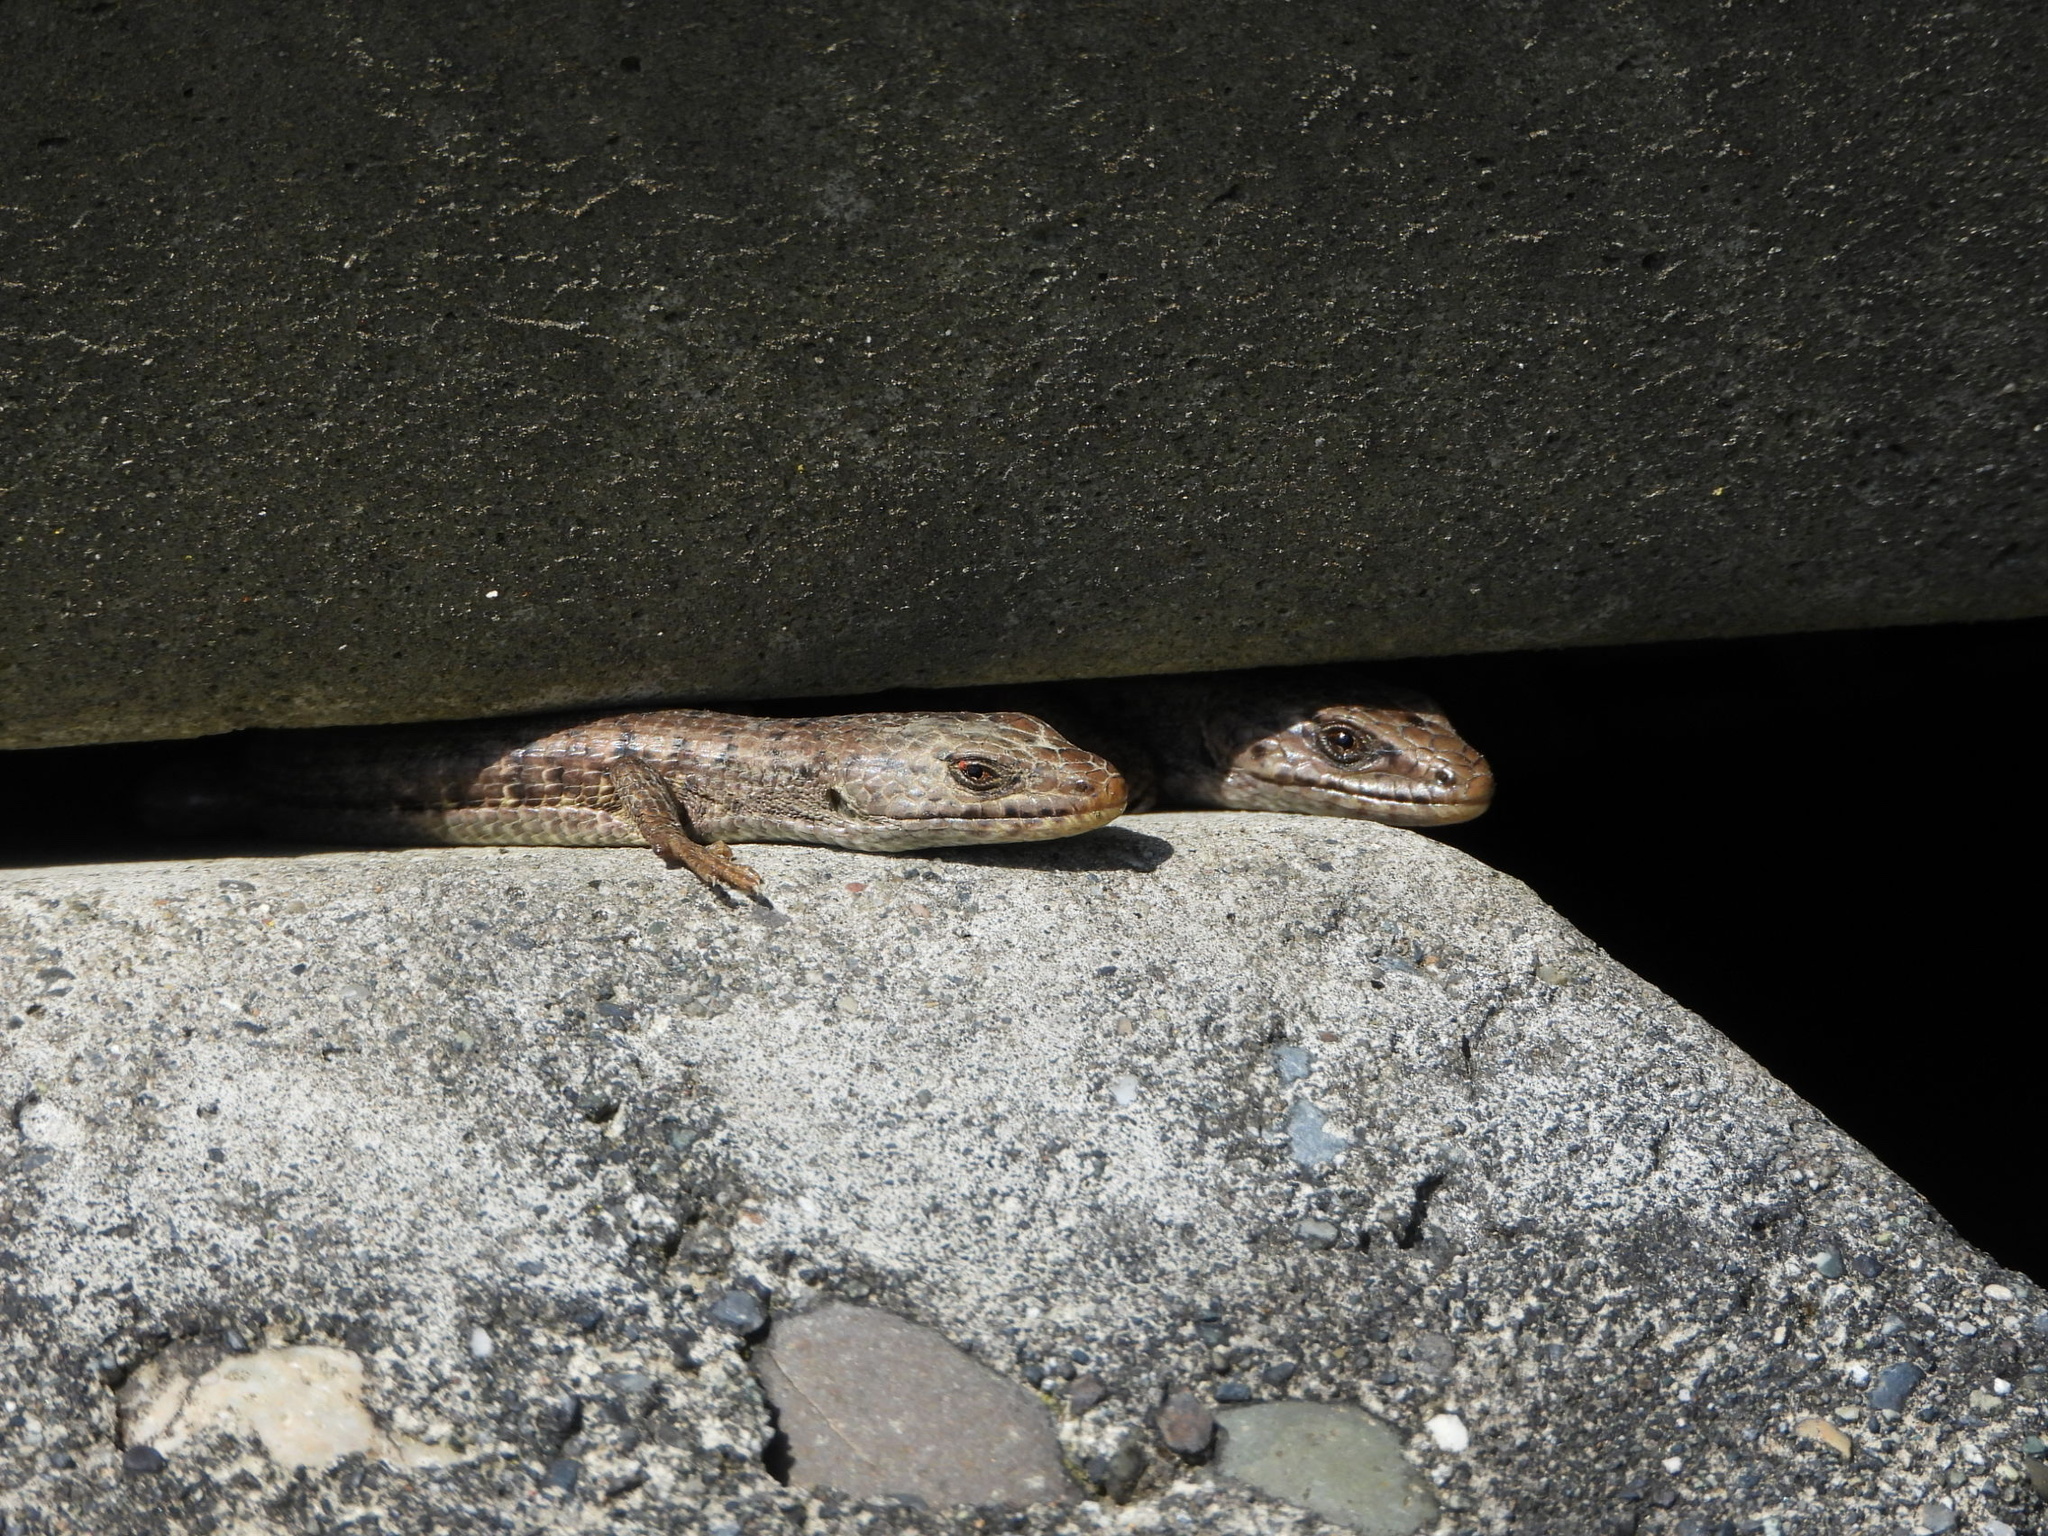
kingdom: Animalia
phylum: Chordata
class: Squamata
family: Anguidae
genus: Elgaria
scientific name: Elgaria coerulea
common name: Northern alligator lizard
